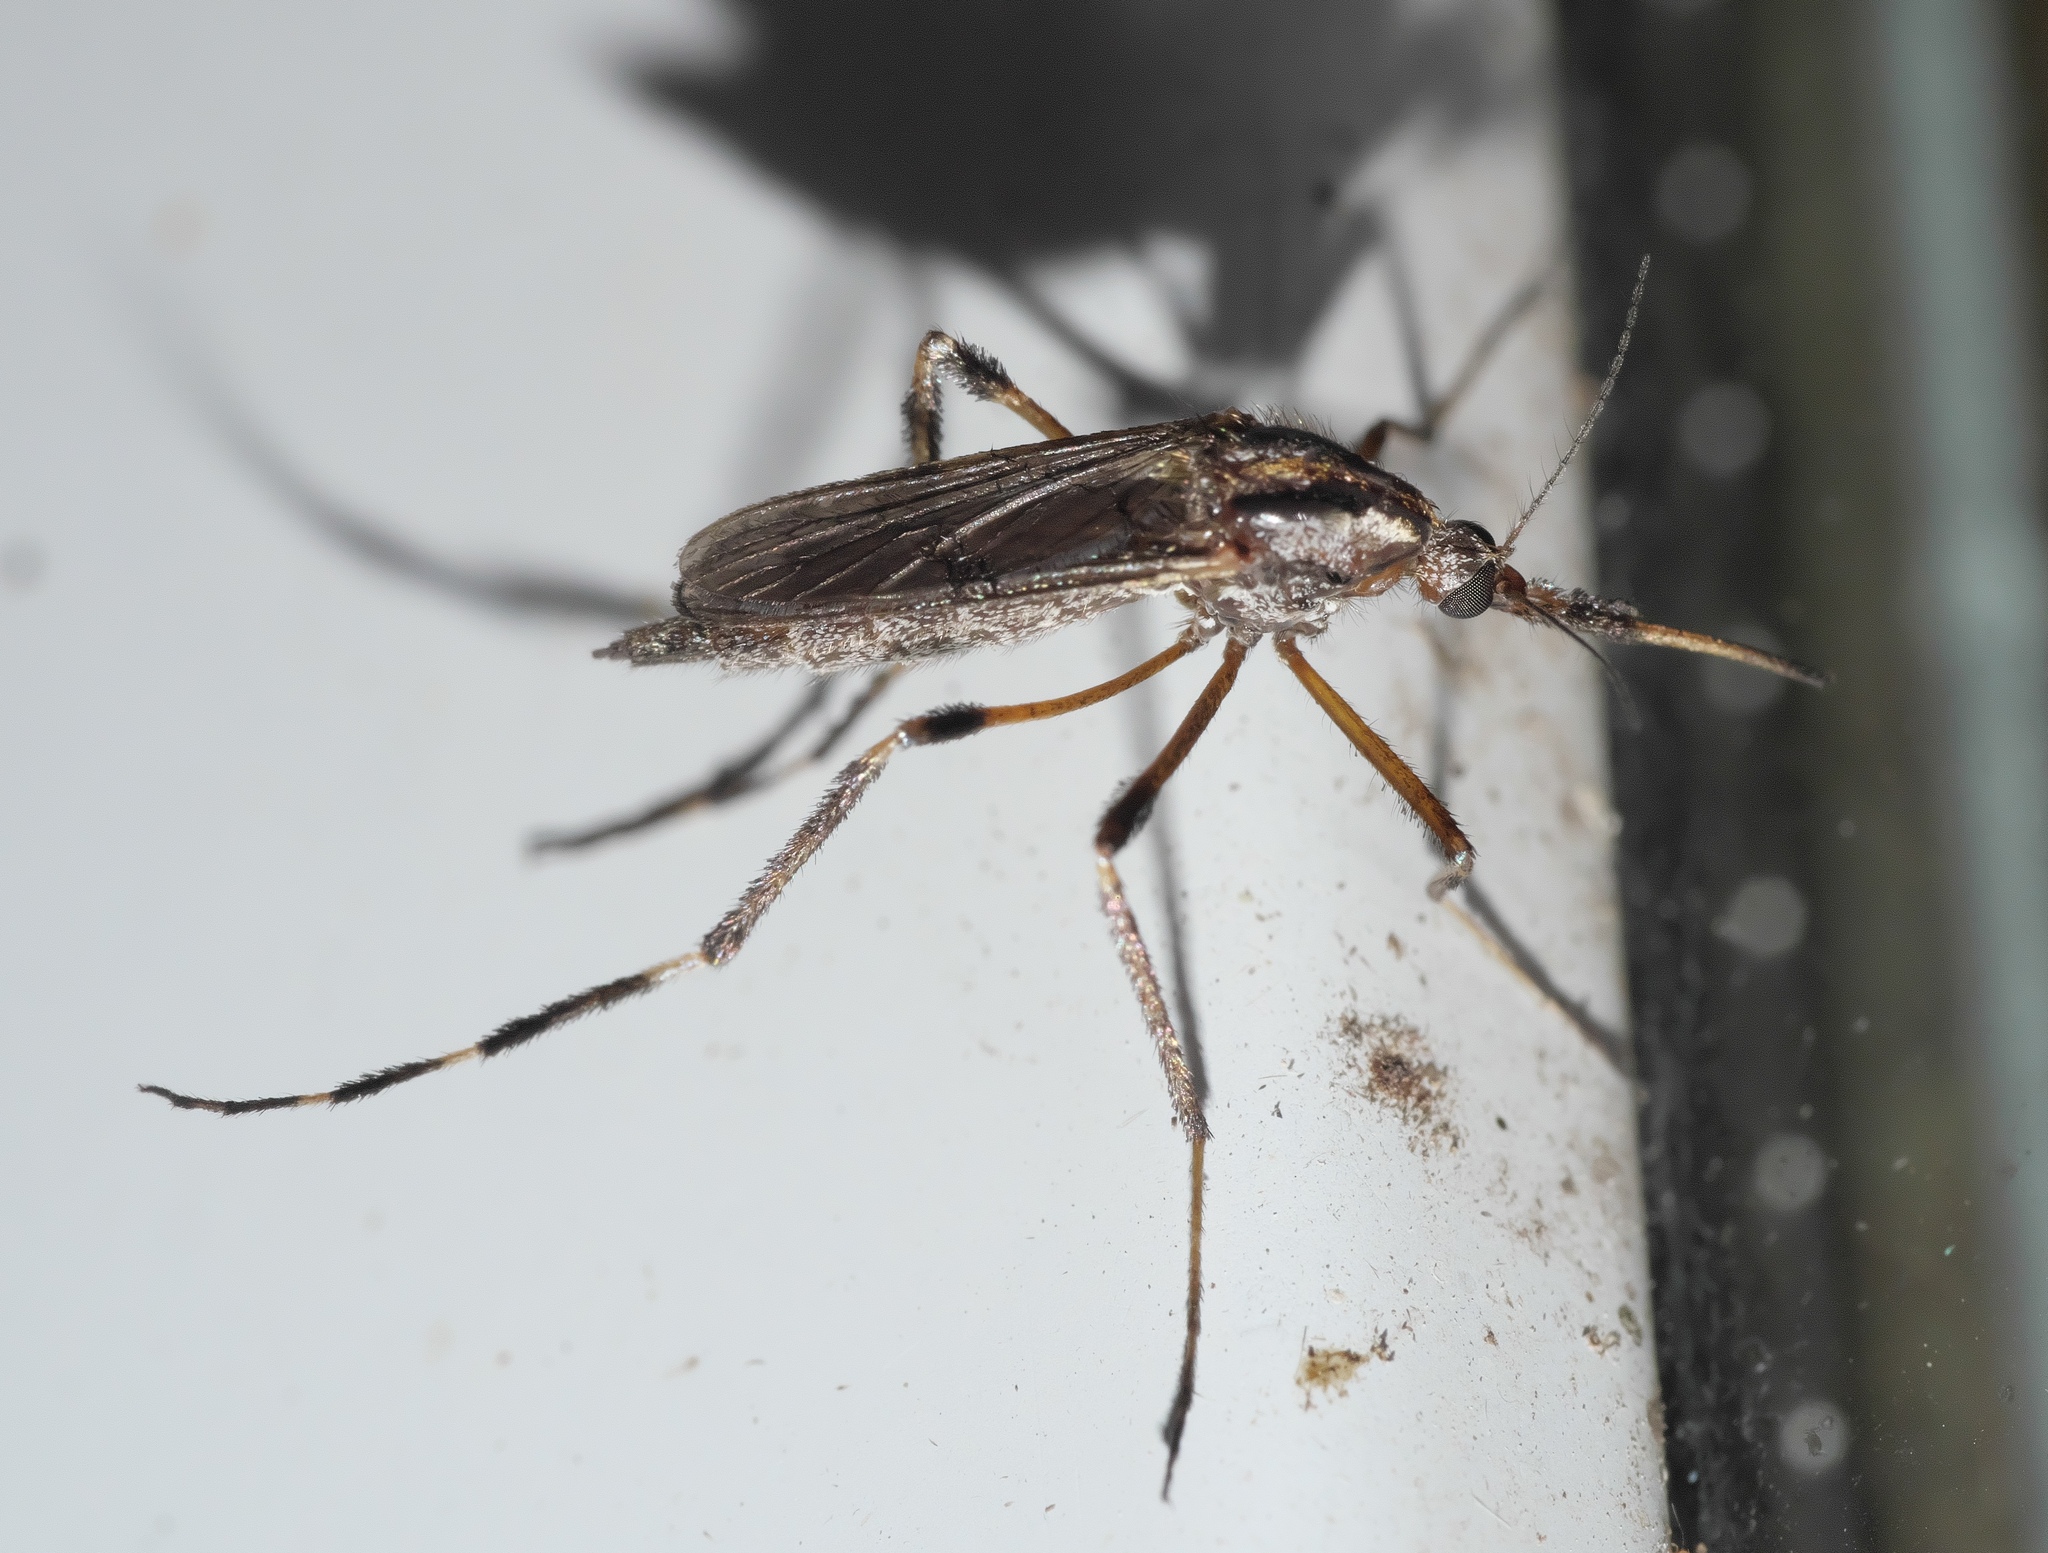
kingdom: Animalia
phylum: Arthropoda
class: Insecta
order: Diptera
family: Culicidae
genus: Psorophora
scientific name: Psorophora ciliata
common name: Gallinipper
